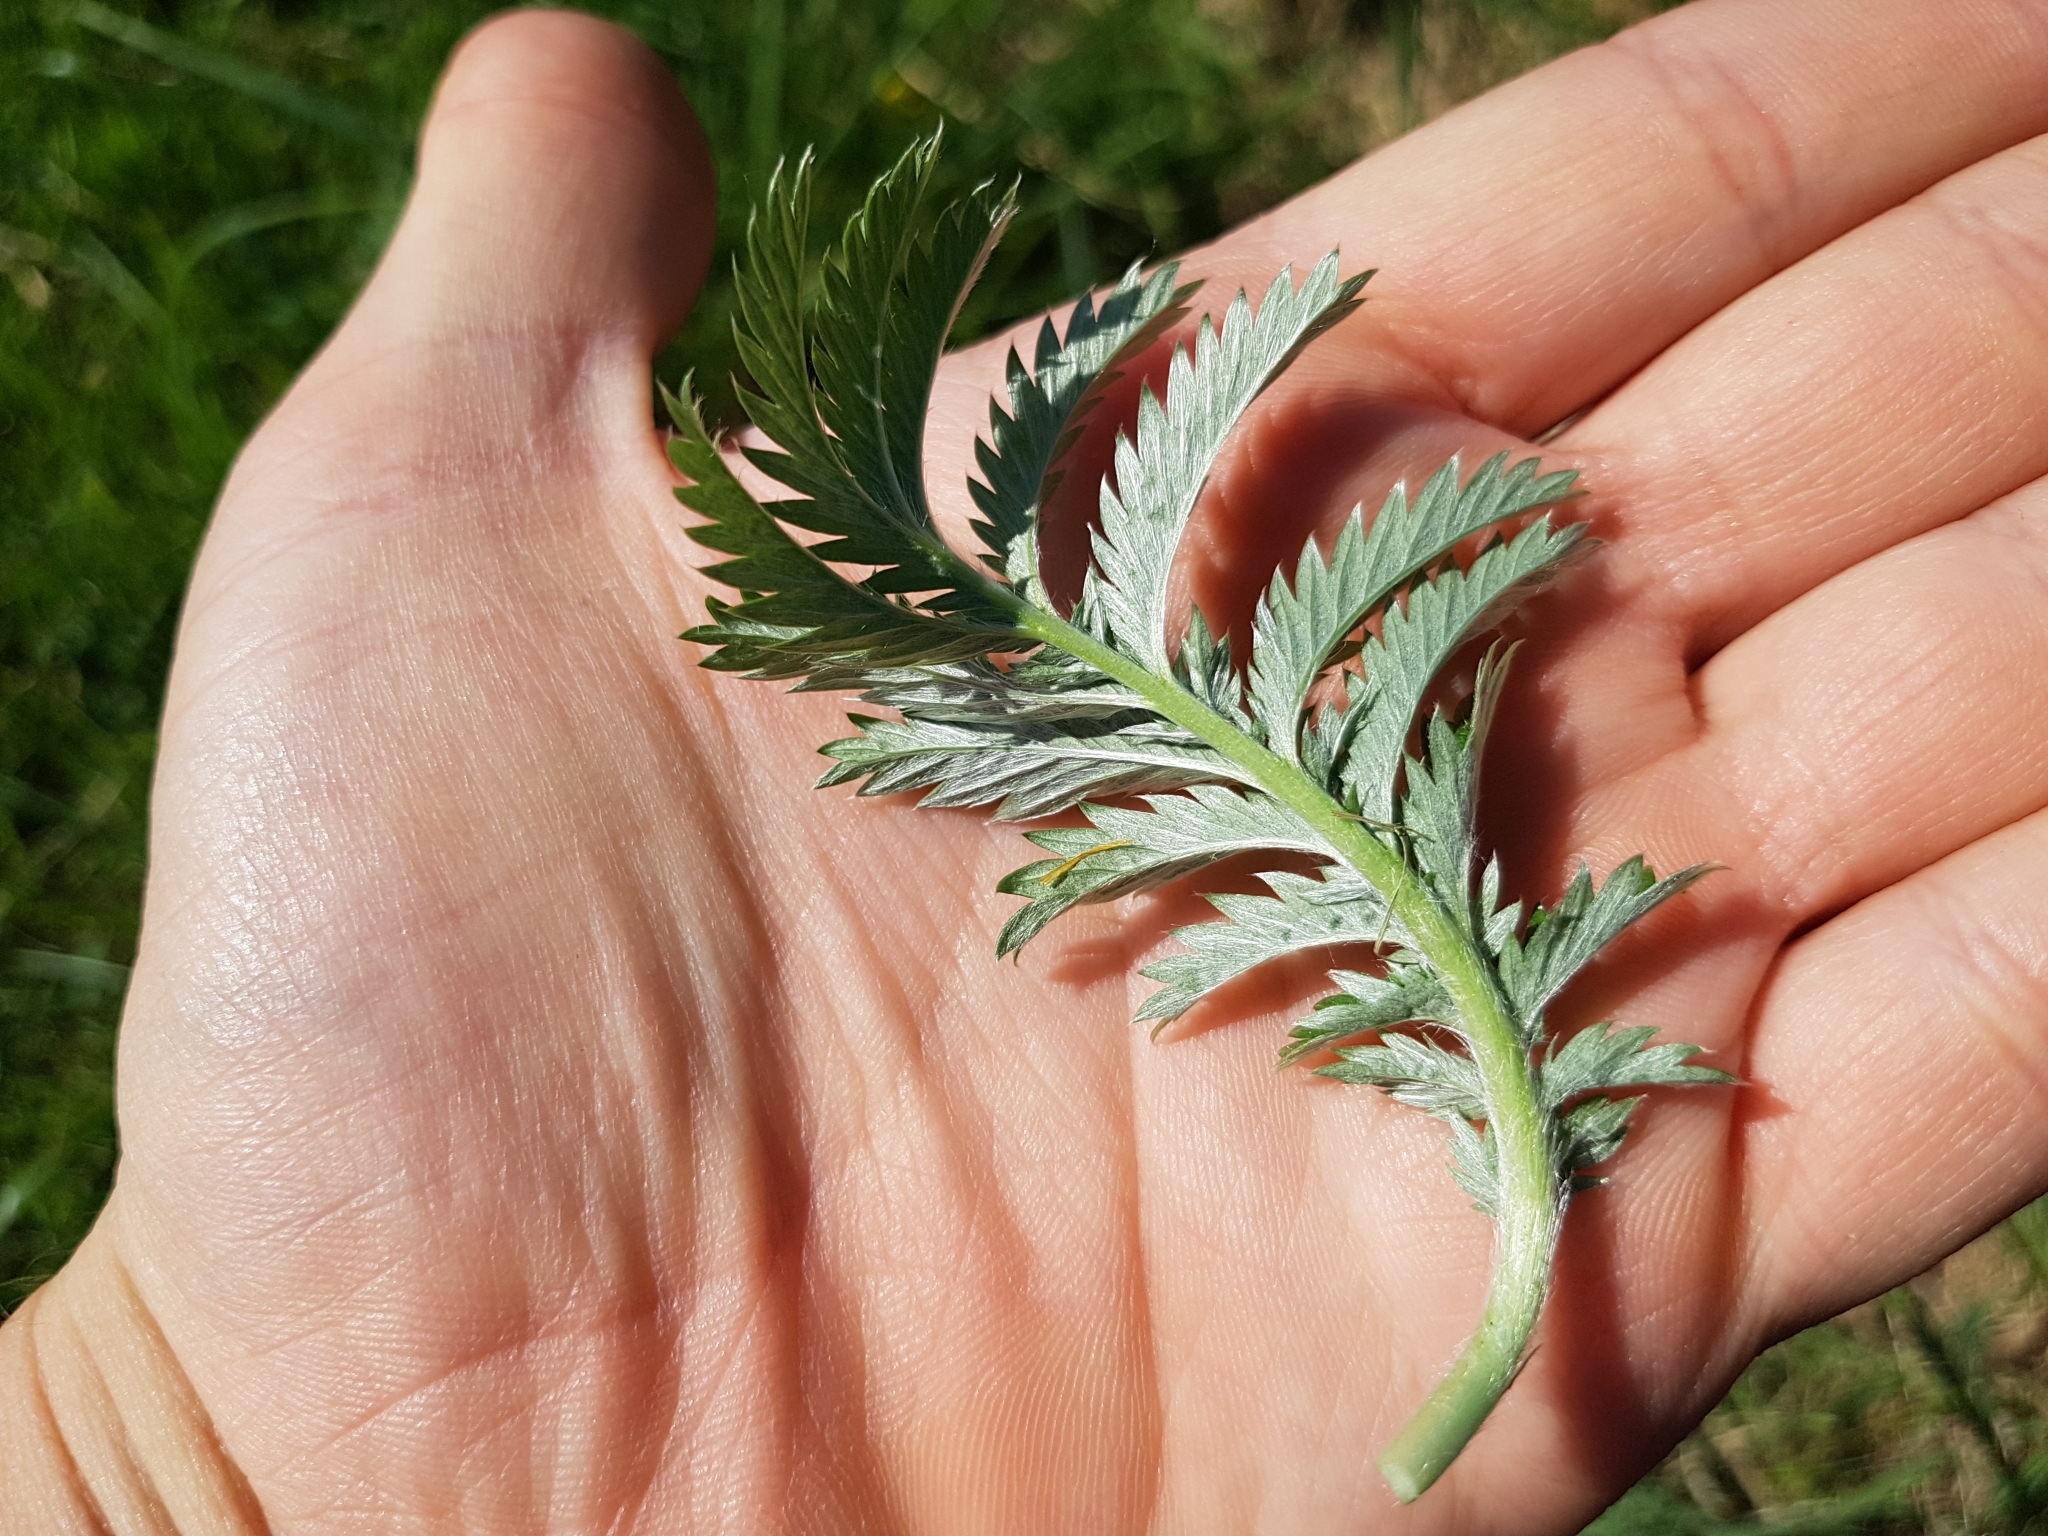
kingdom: Plantae
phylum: Tracheophyta
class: Magnoliopsida
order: Rosales
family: Rosaceae
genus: Argentina
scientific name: Argentina anserina
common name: Common silverweed
